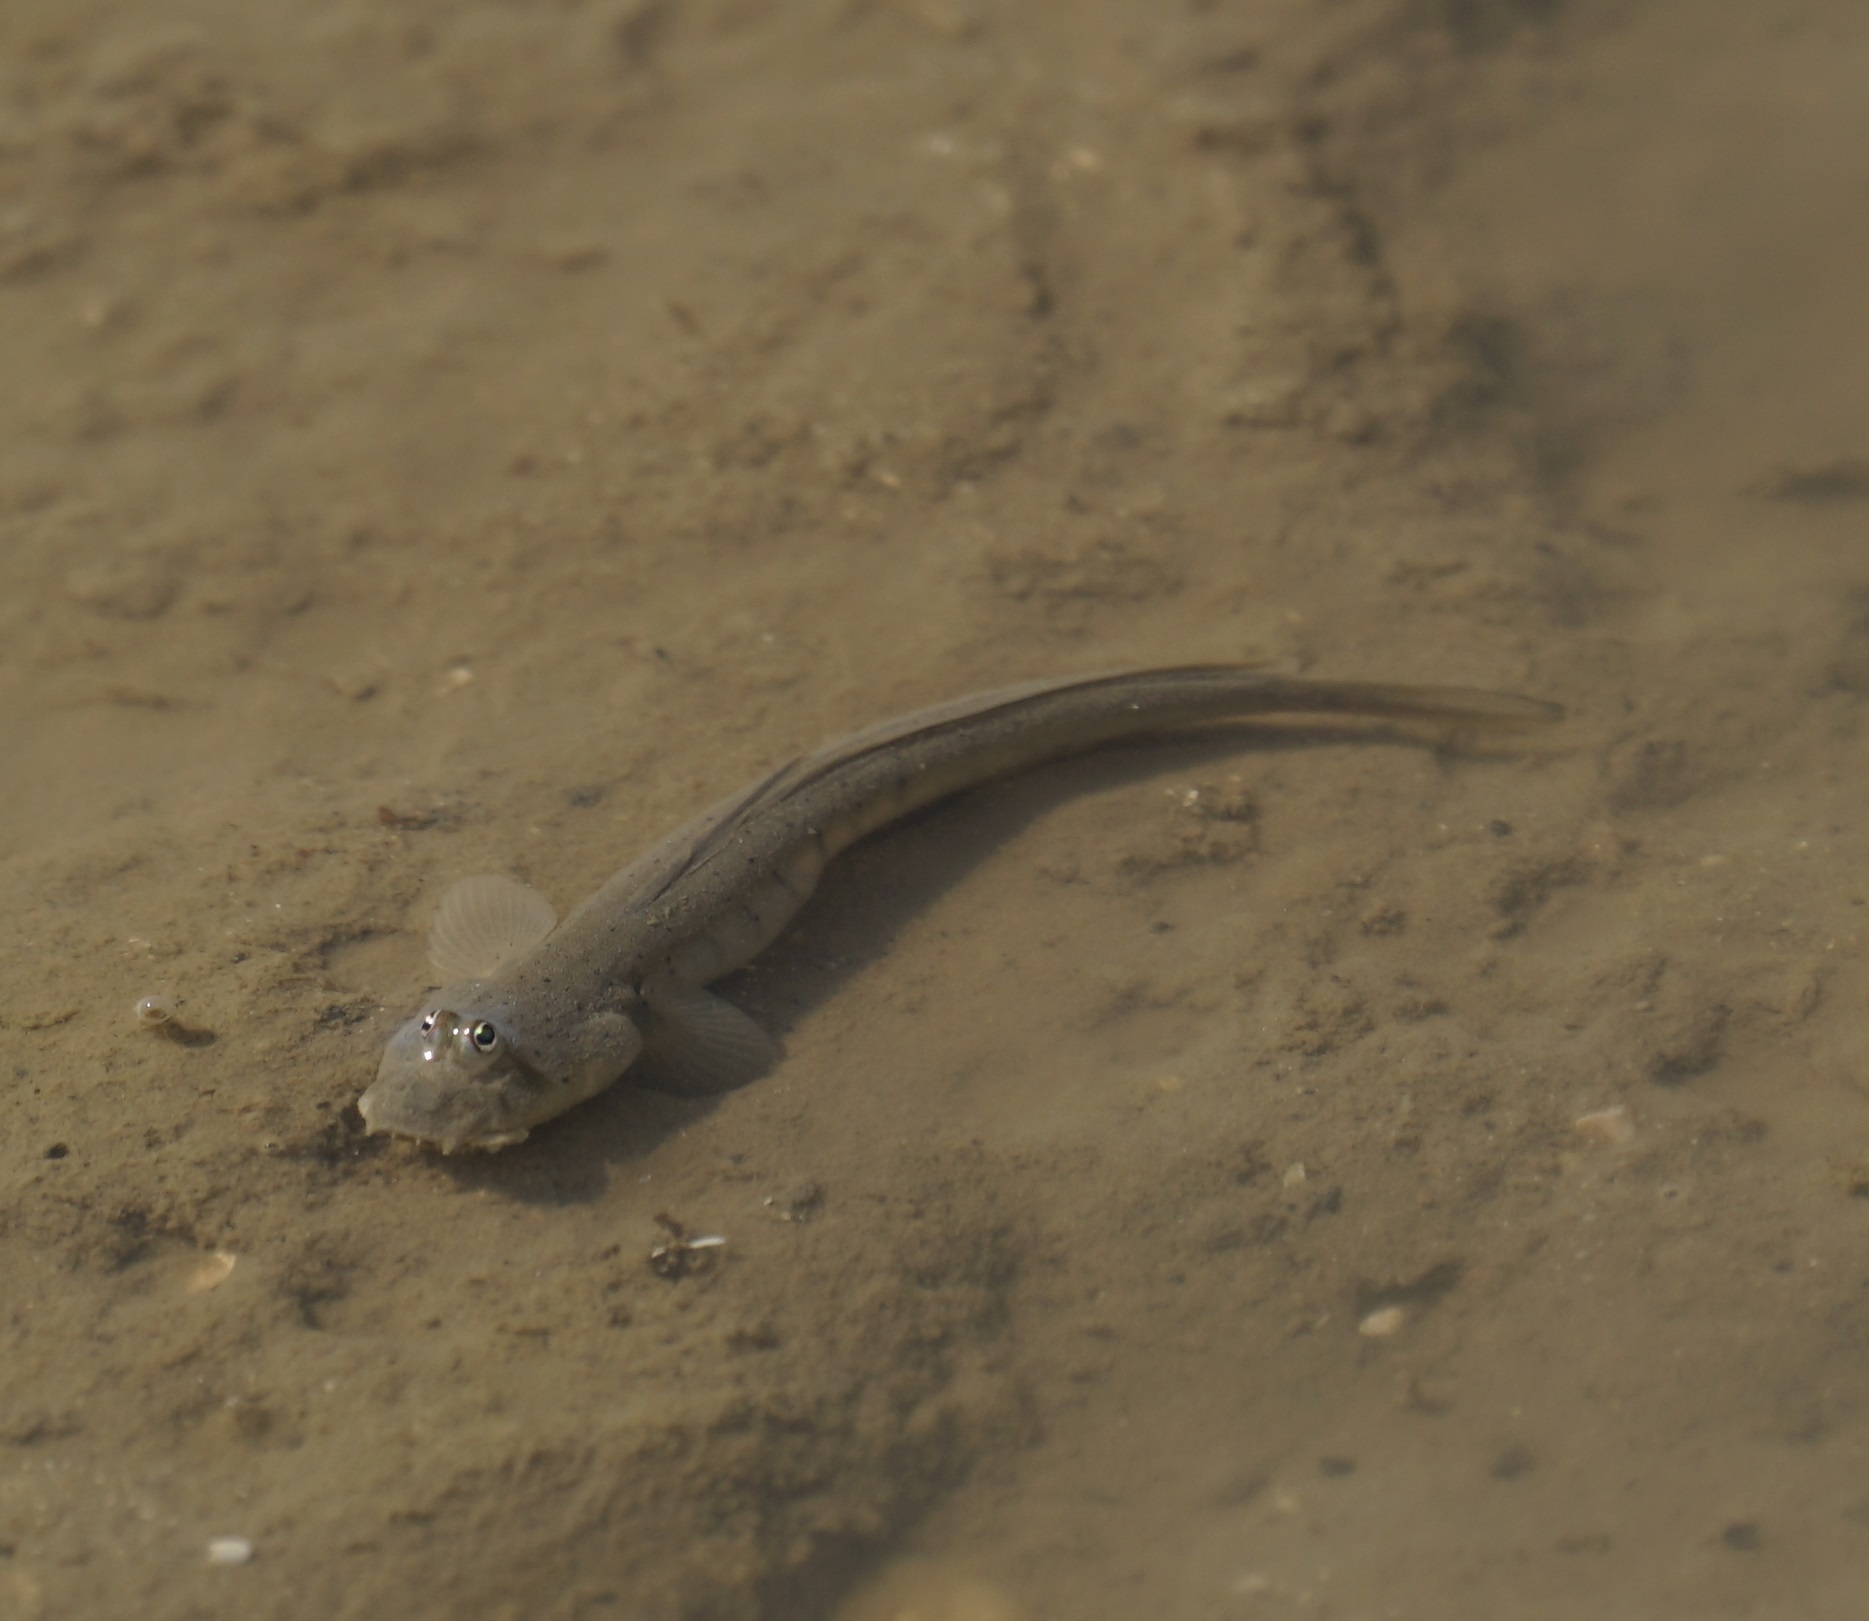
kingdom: Animalia
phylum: Chordata
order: Perciformes
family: Gobiidae
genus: Scartelaos
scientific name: Scartelaos histophorus
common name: Walking goby
